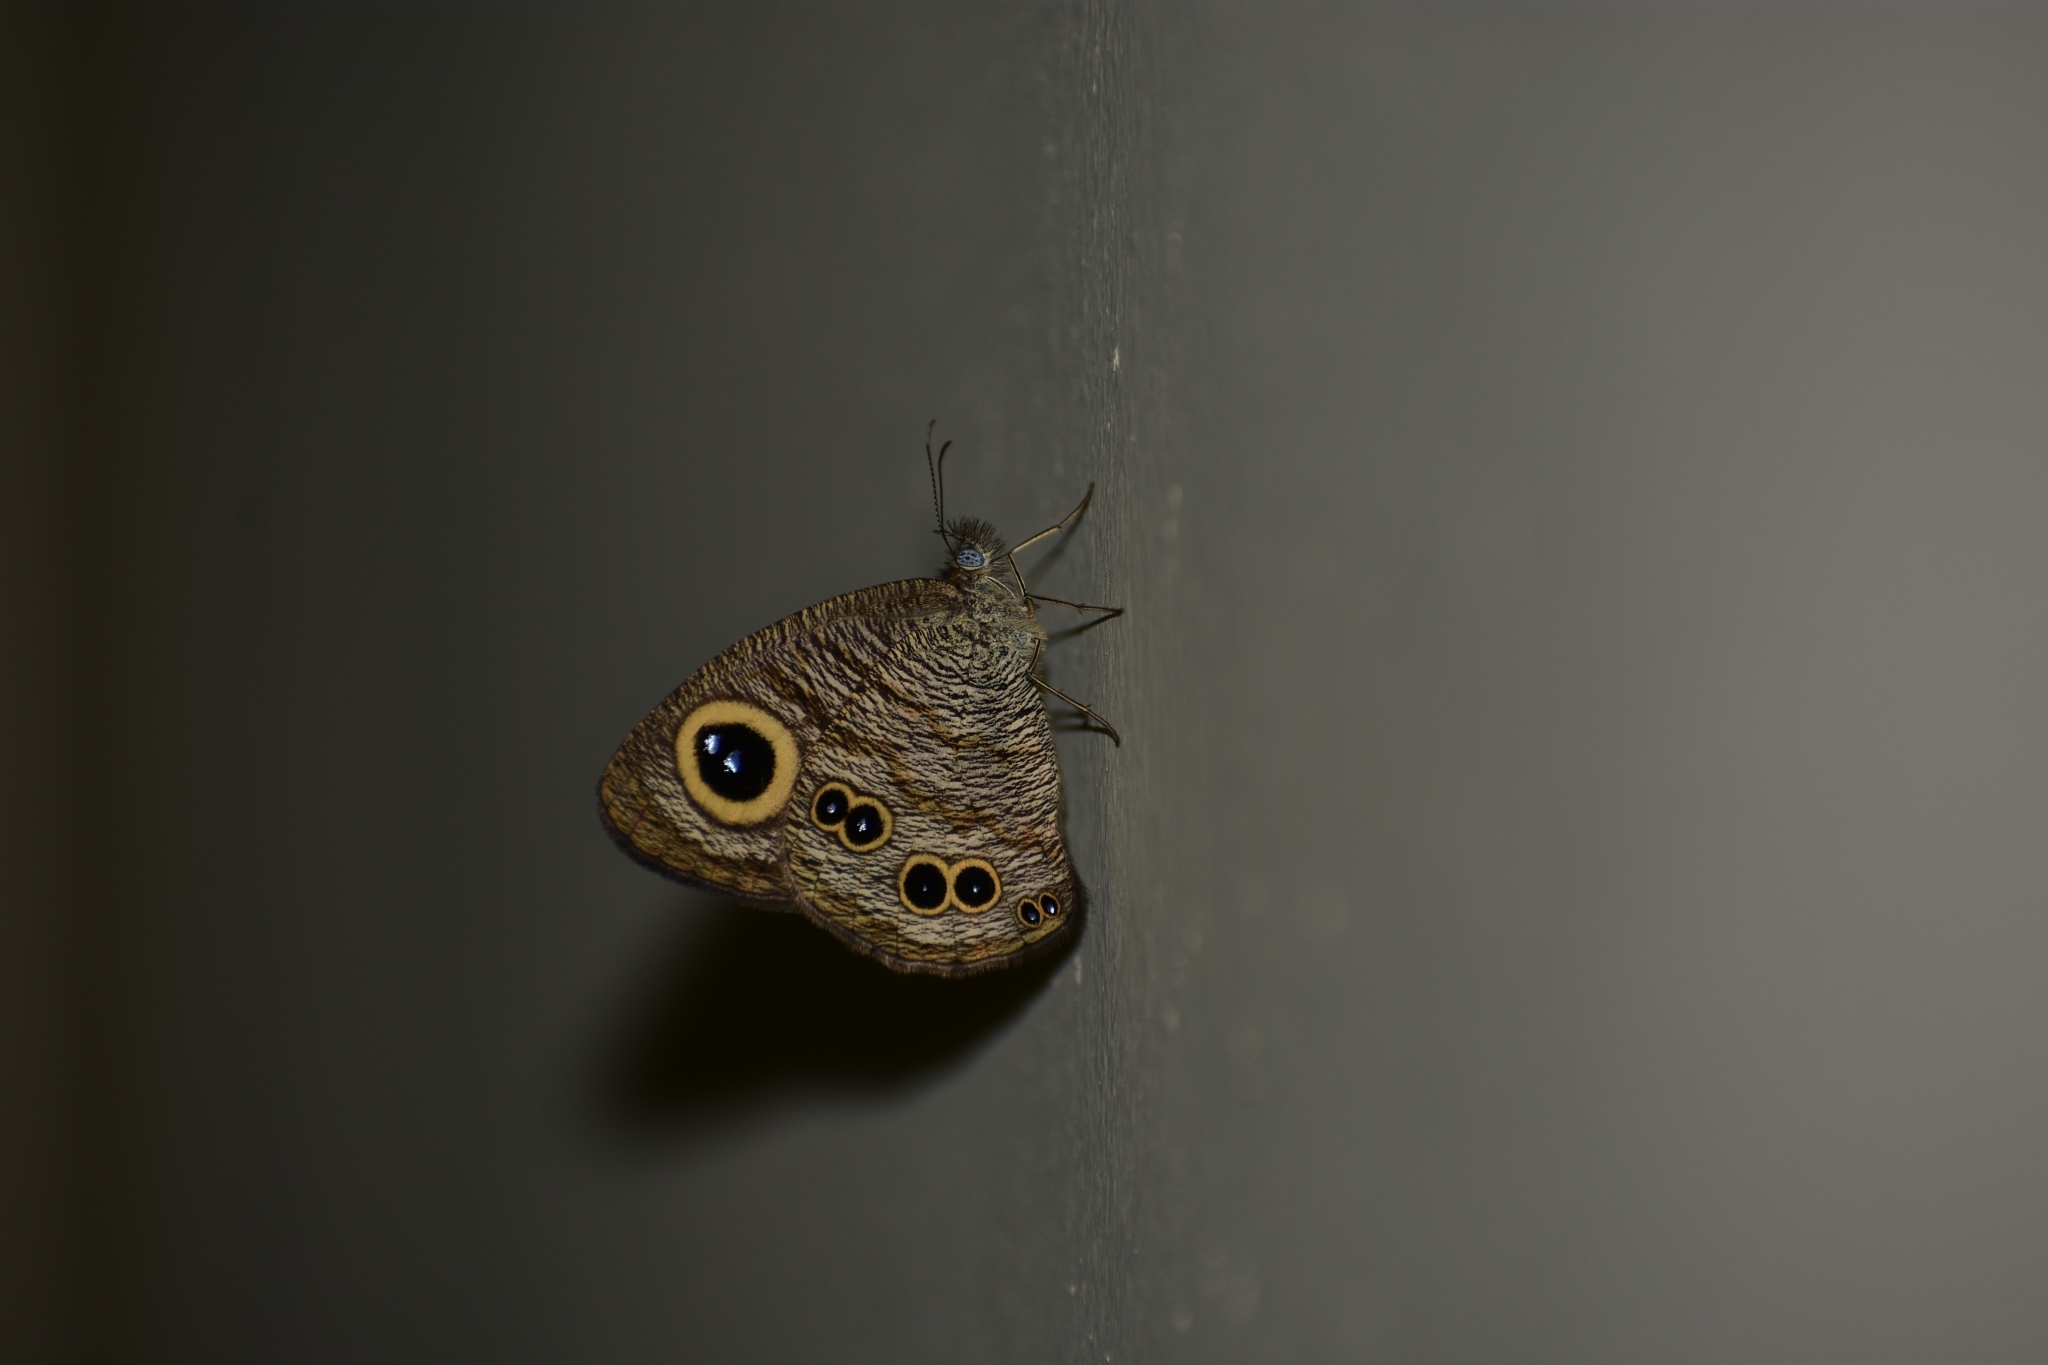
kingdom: Animalia
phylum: Arthropoda
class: Insecta
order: Lepidoptera
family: Nymphalidae
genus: Ypthima
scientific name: Ypthima baldus
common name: Common five-ring
